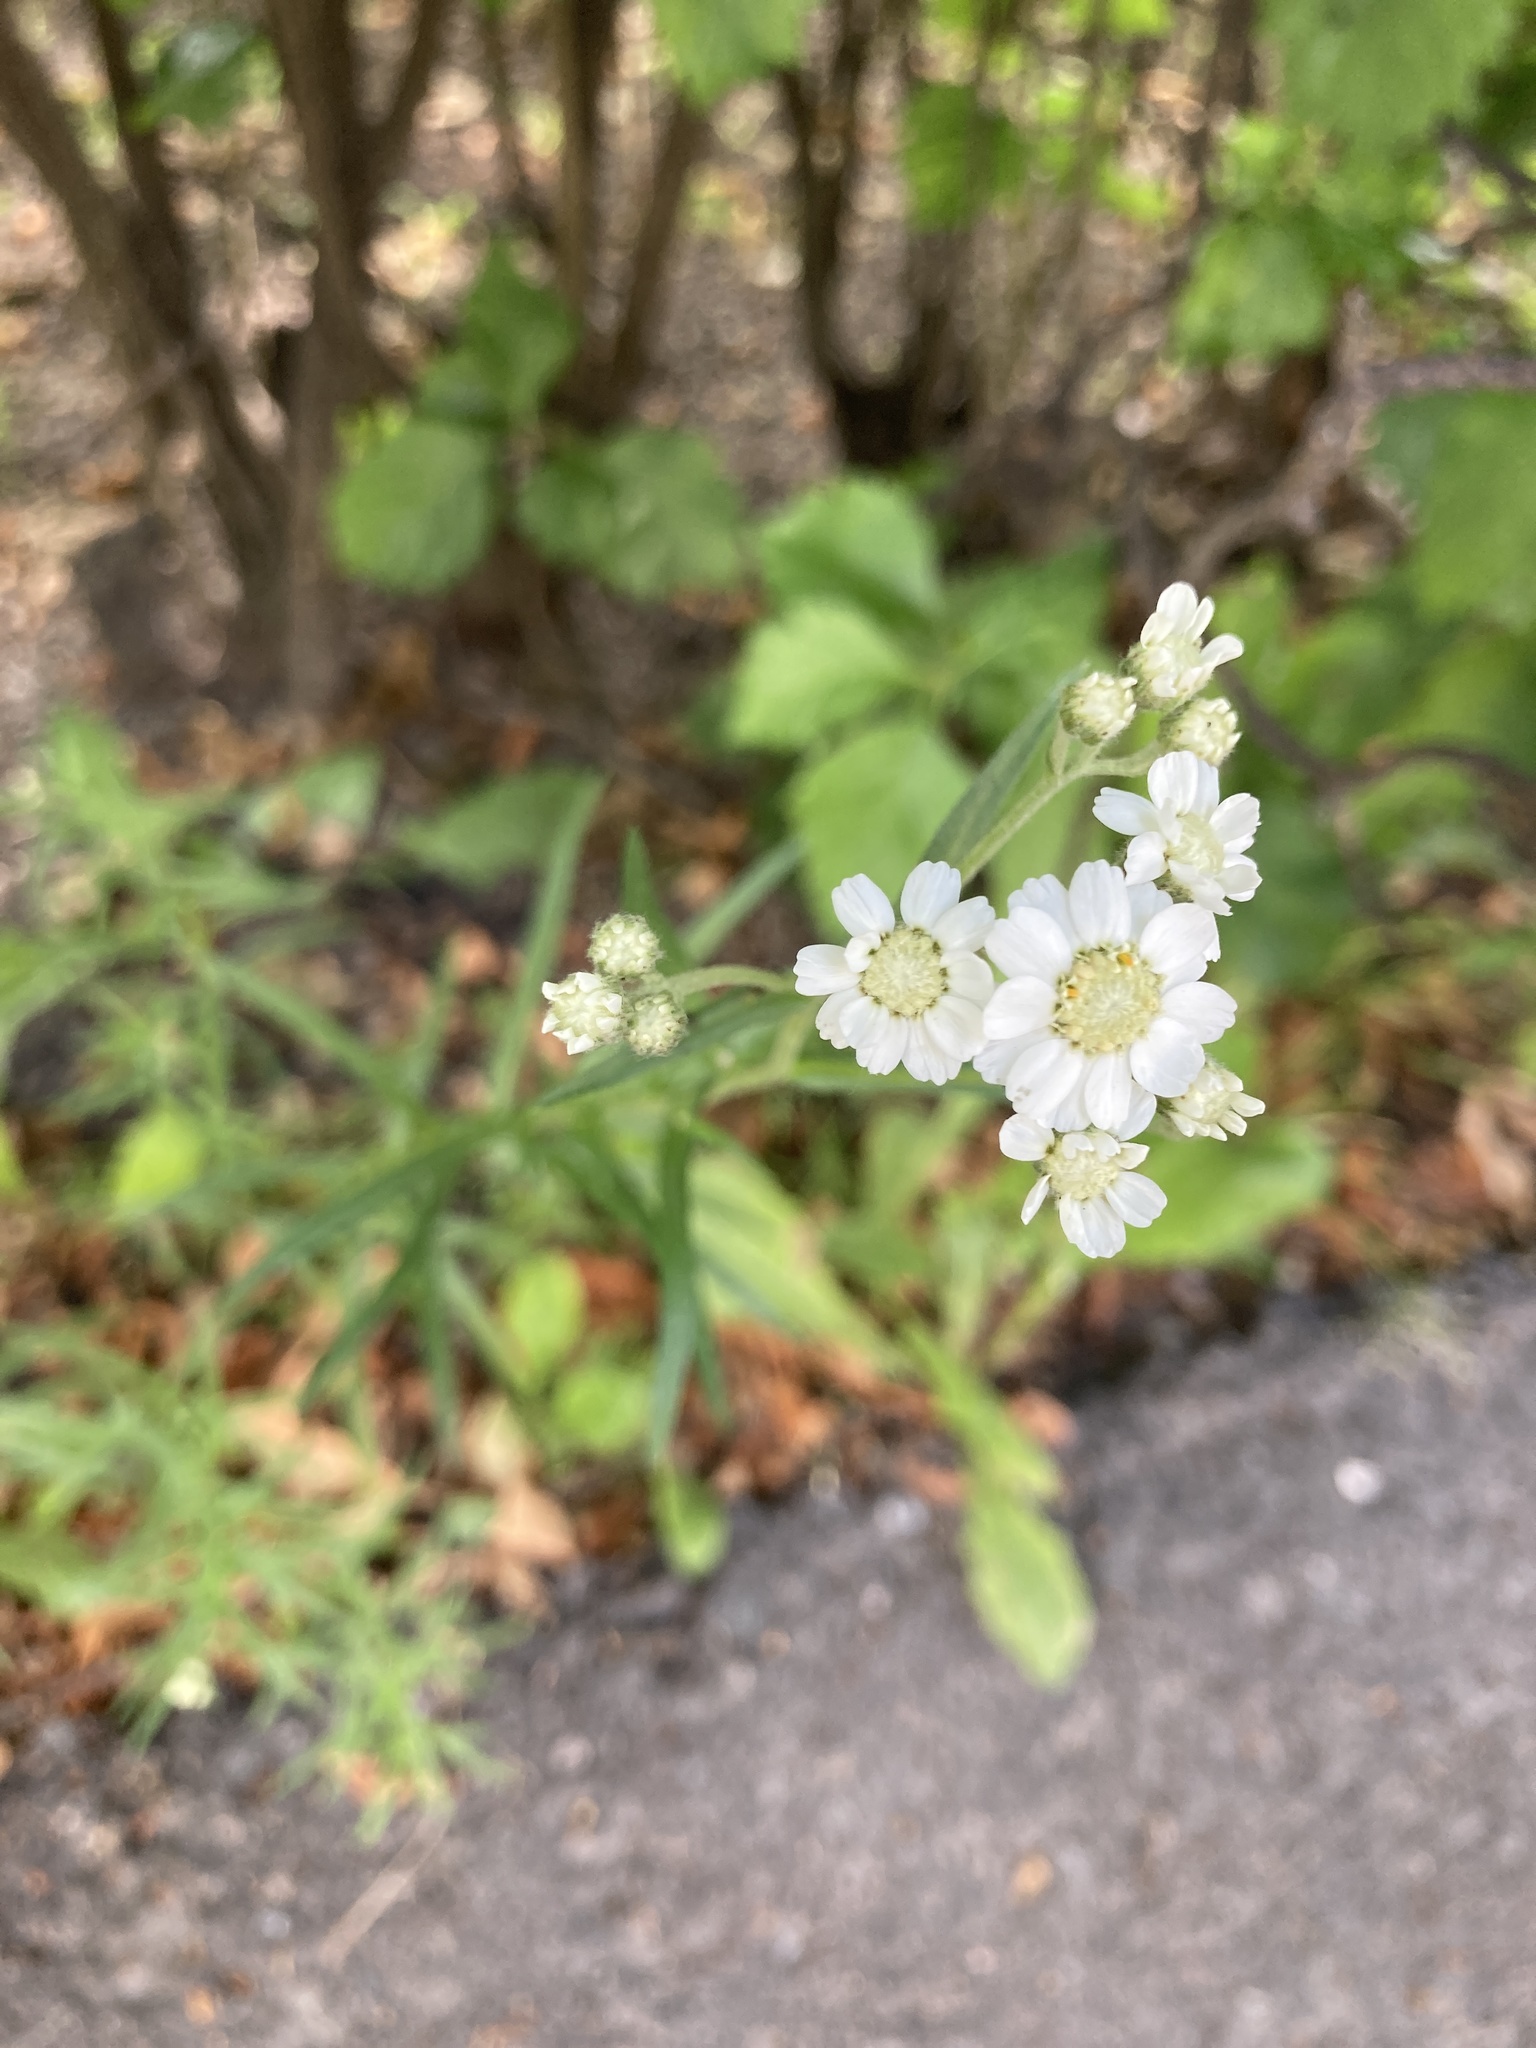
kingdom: Plantae
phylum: Tracheophyta
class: Magnoliopsida
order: Asterales
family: Asteraceae
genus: Achillea
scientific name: Achillea ptarmica
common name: Sneezeweed
